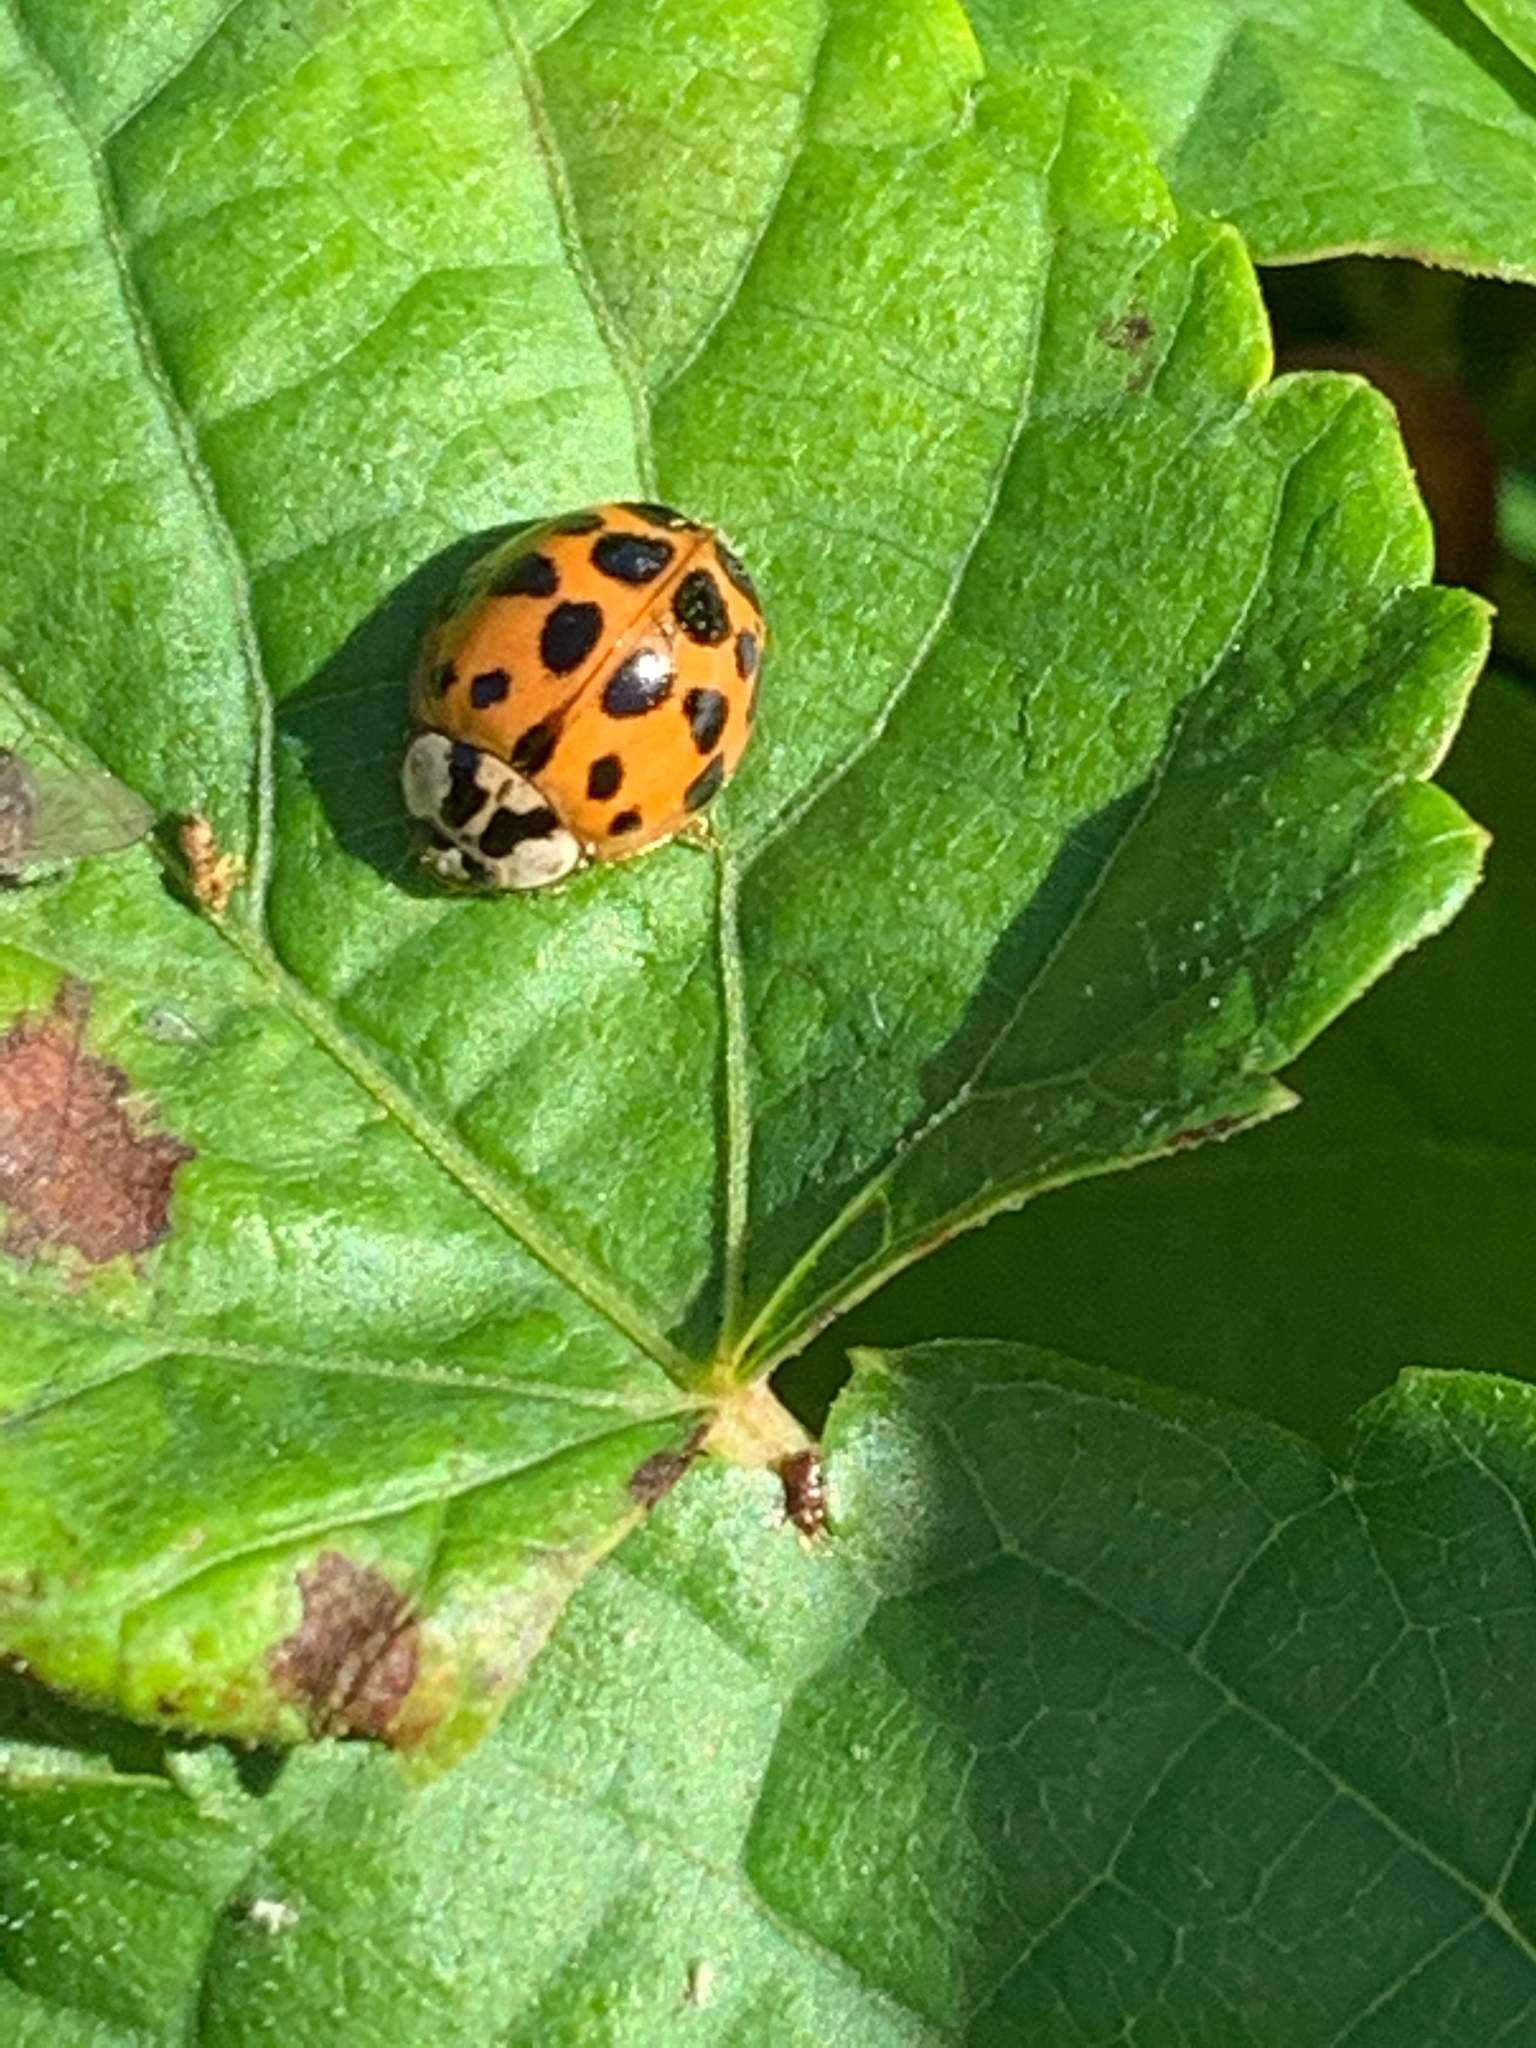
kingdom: Animalia
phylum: Arthropoda
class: Insecta
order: Coleoptera
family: Coccinellidae
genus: Harmonia
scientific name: Harmonia axyridis
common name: Harlequin ladybird
